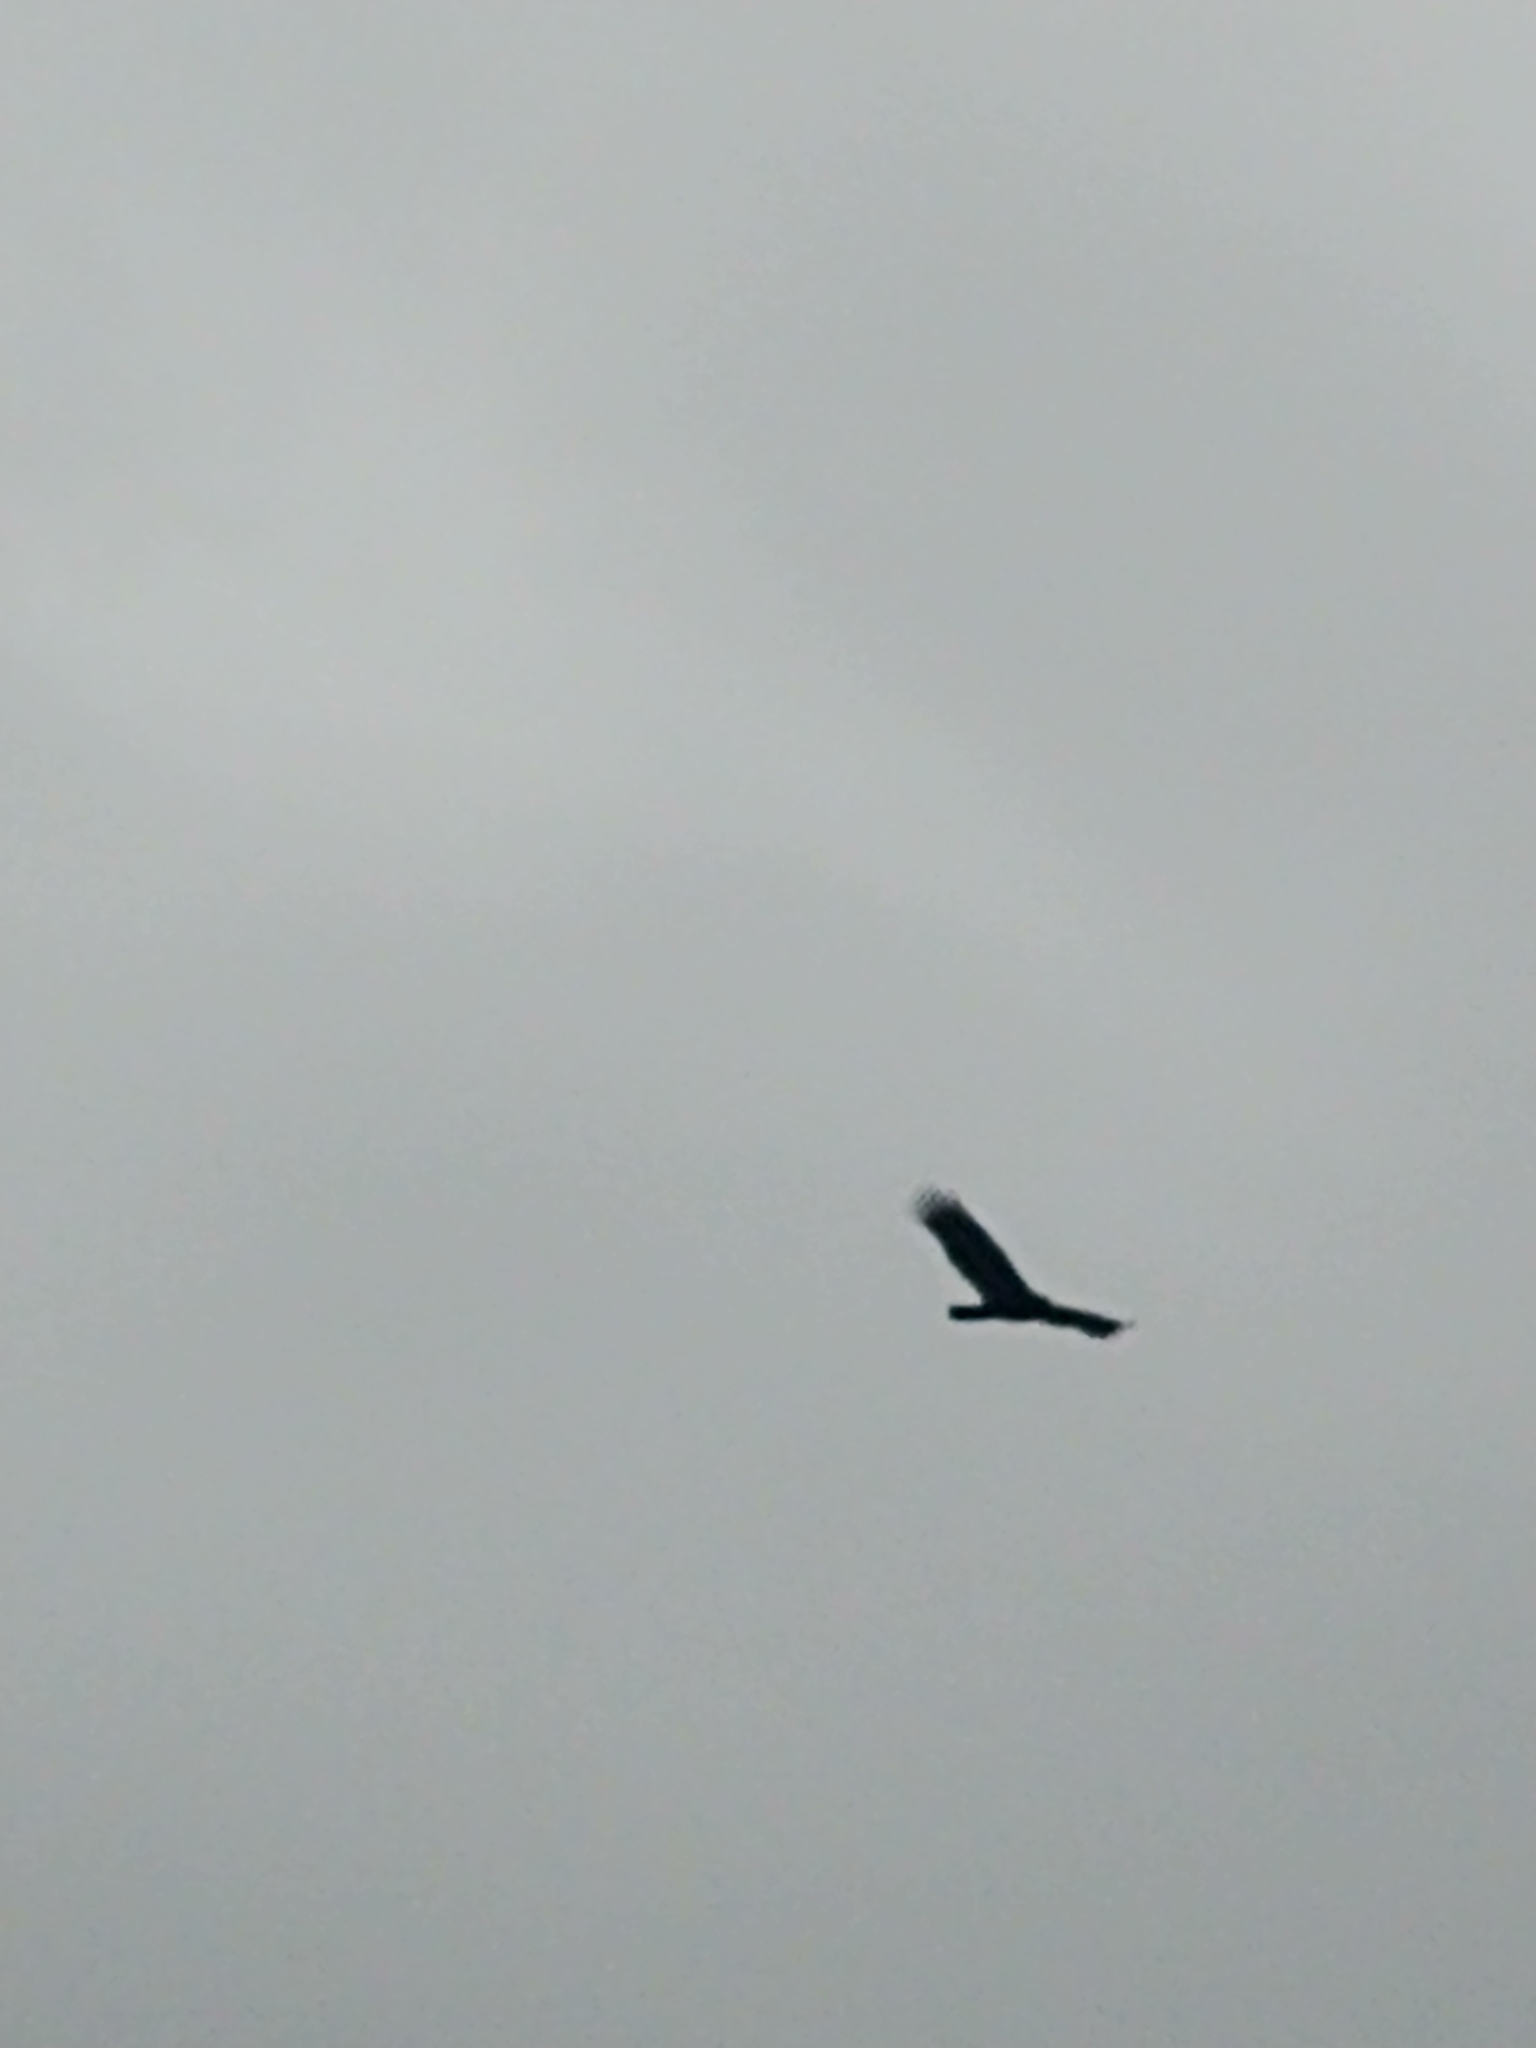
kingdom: Animalia
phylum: Chordata
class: Aves
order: Accipitriformes
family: Cathartidae
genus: Cathartes
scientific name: Cathartes aura
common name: Turkey vulture
